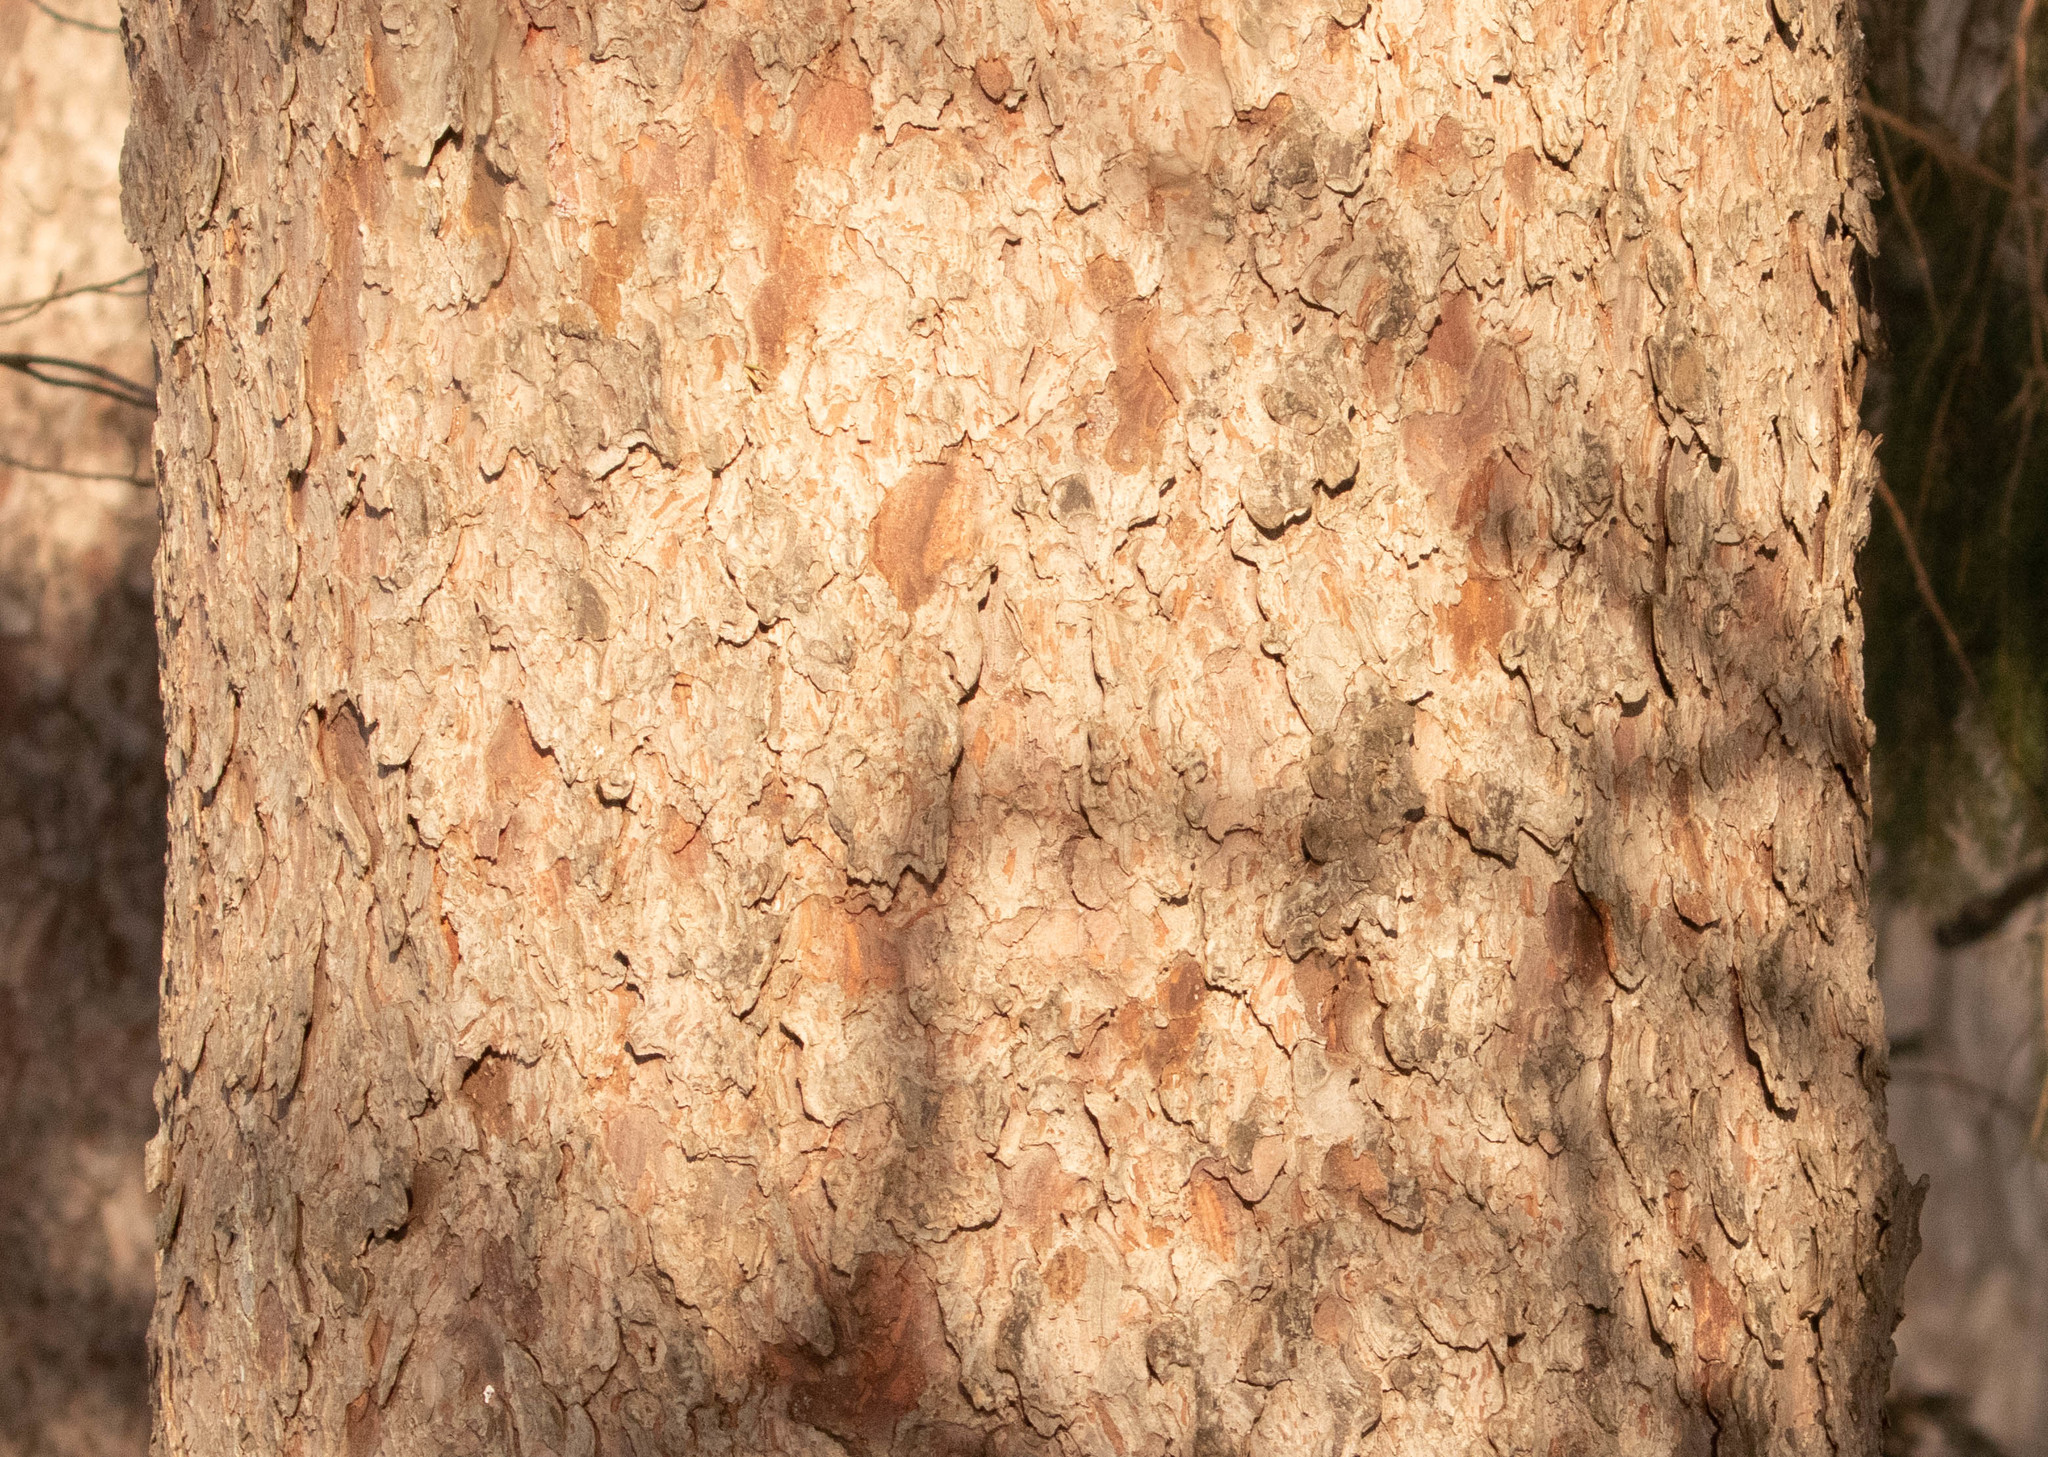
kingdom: Plantae
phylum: Tracheophyta
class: Pinopsida
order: Pinales
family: Pinaceae
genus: Picea
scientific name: Picea abies
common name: Norway spruce
